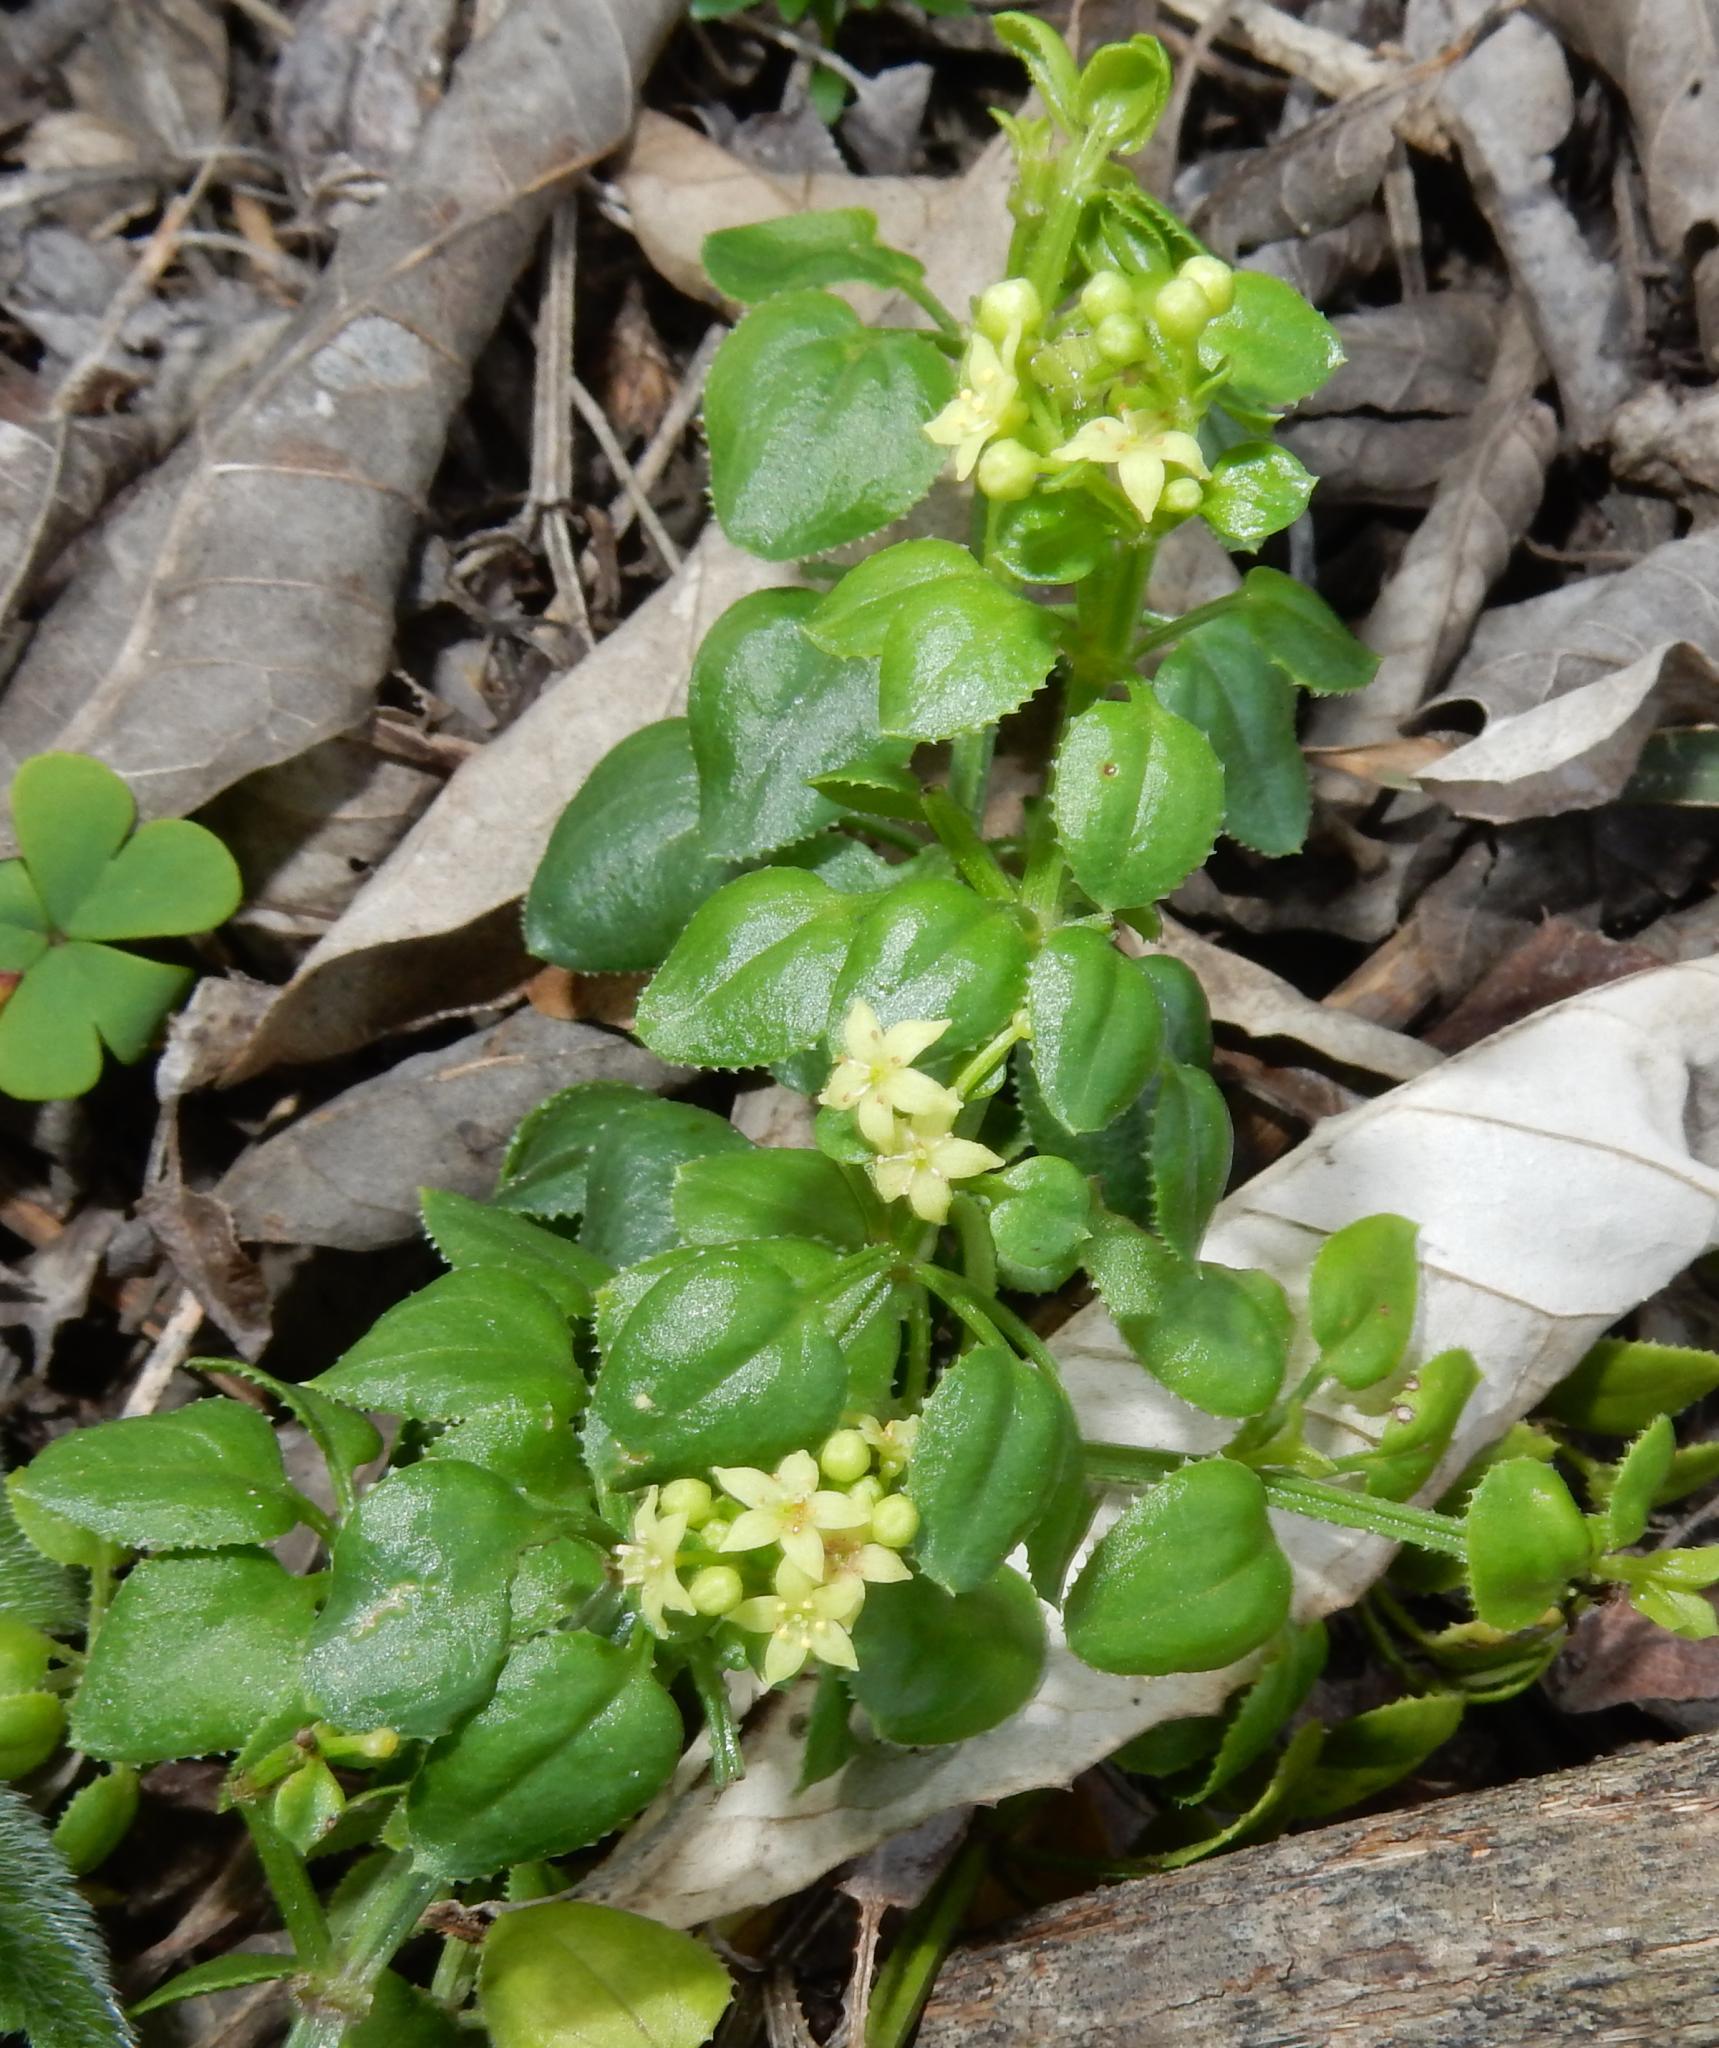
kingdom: Plantae
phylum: Tracheophyta
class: Magnoliopsida
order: Gentianales
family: Rubiaceae
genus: Rubia
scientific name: Rubia petiolaris
